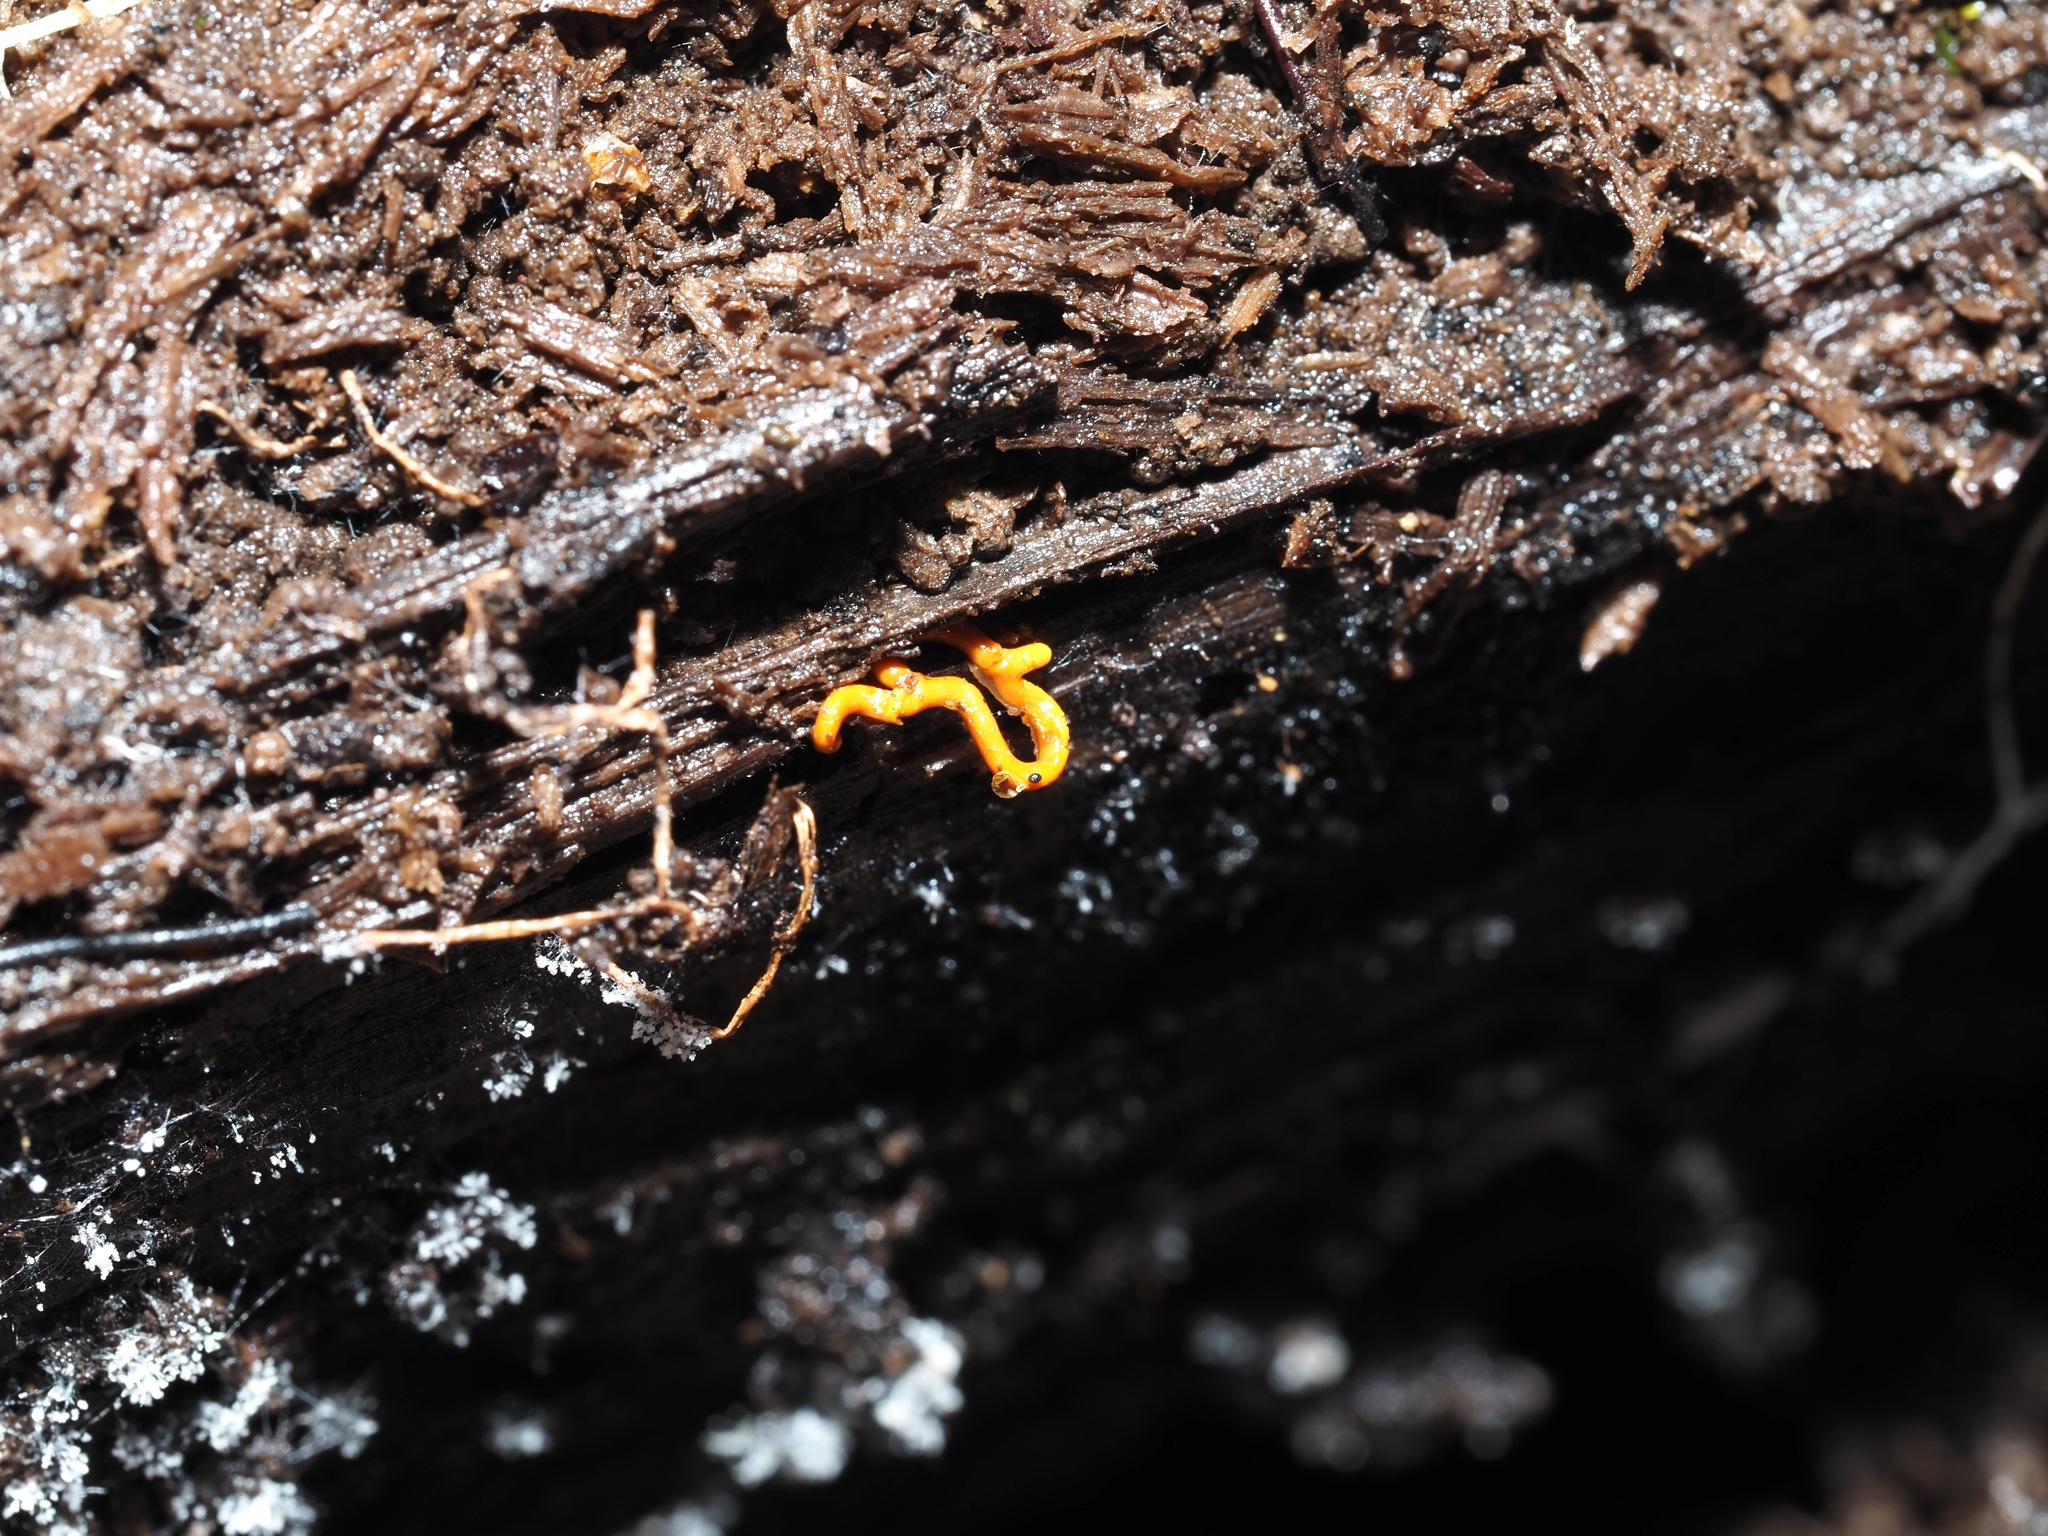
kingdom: Protozoa
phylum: Mycetozoa
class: Myxomycetes
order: Trichiales
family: Arcyriaceae
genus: Hemitrichia
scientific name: Hemitrichia serpula
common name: Pretzel slime mold
